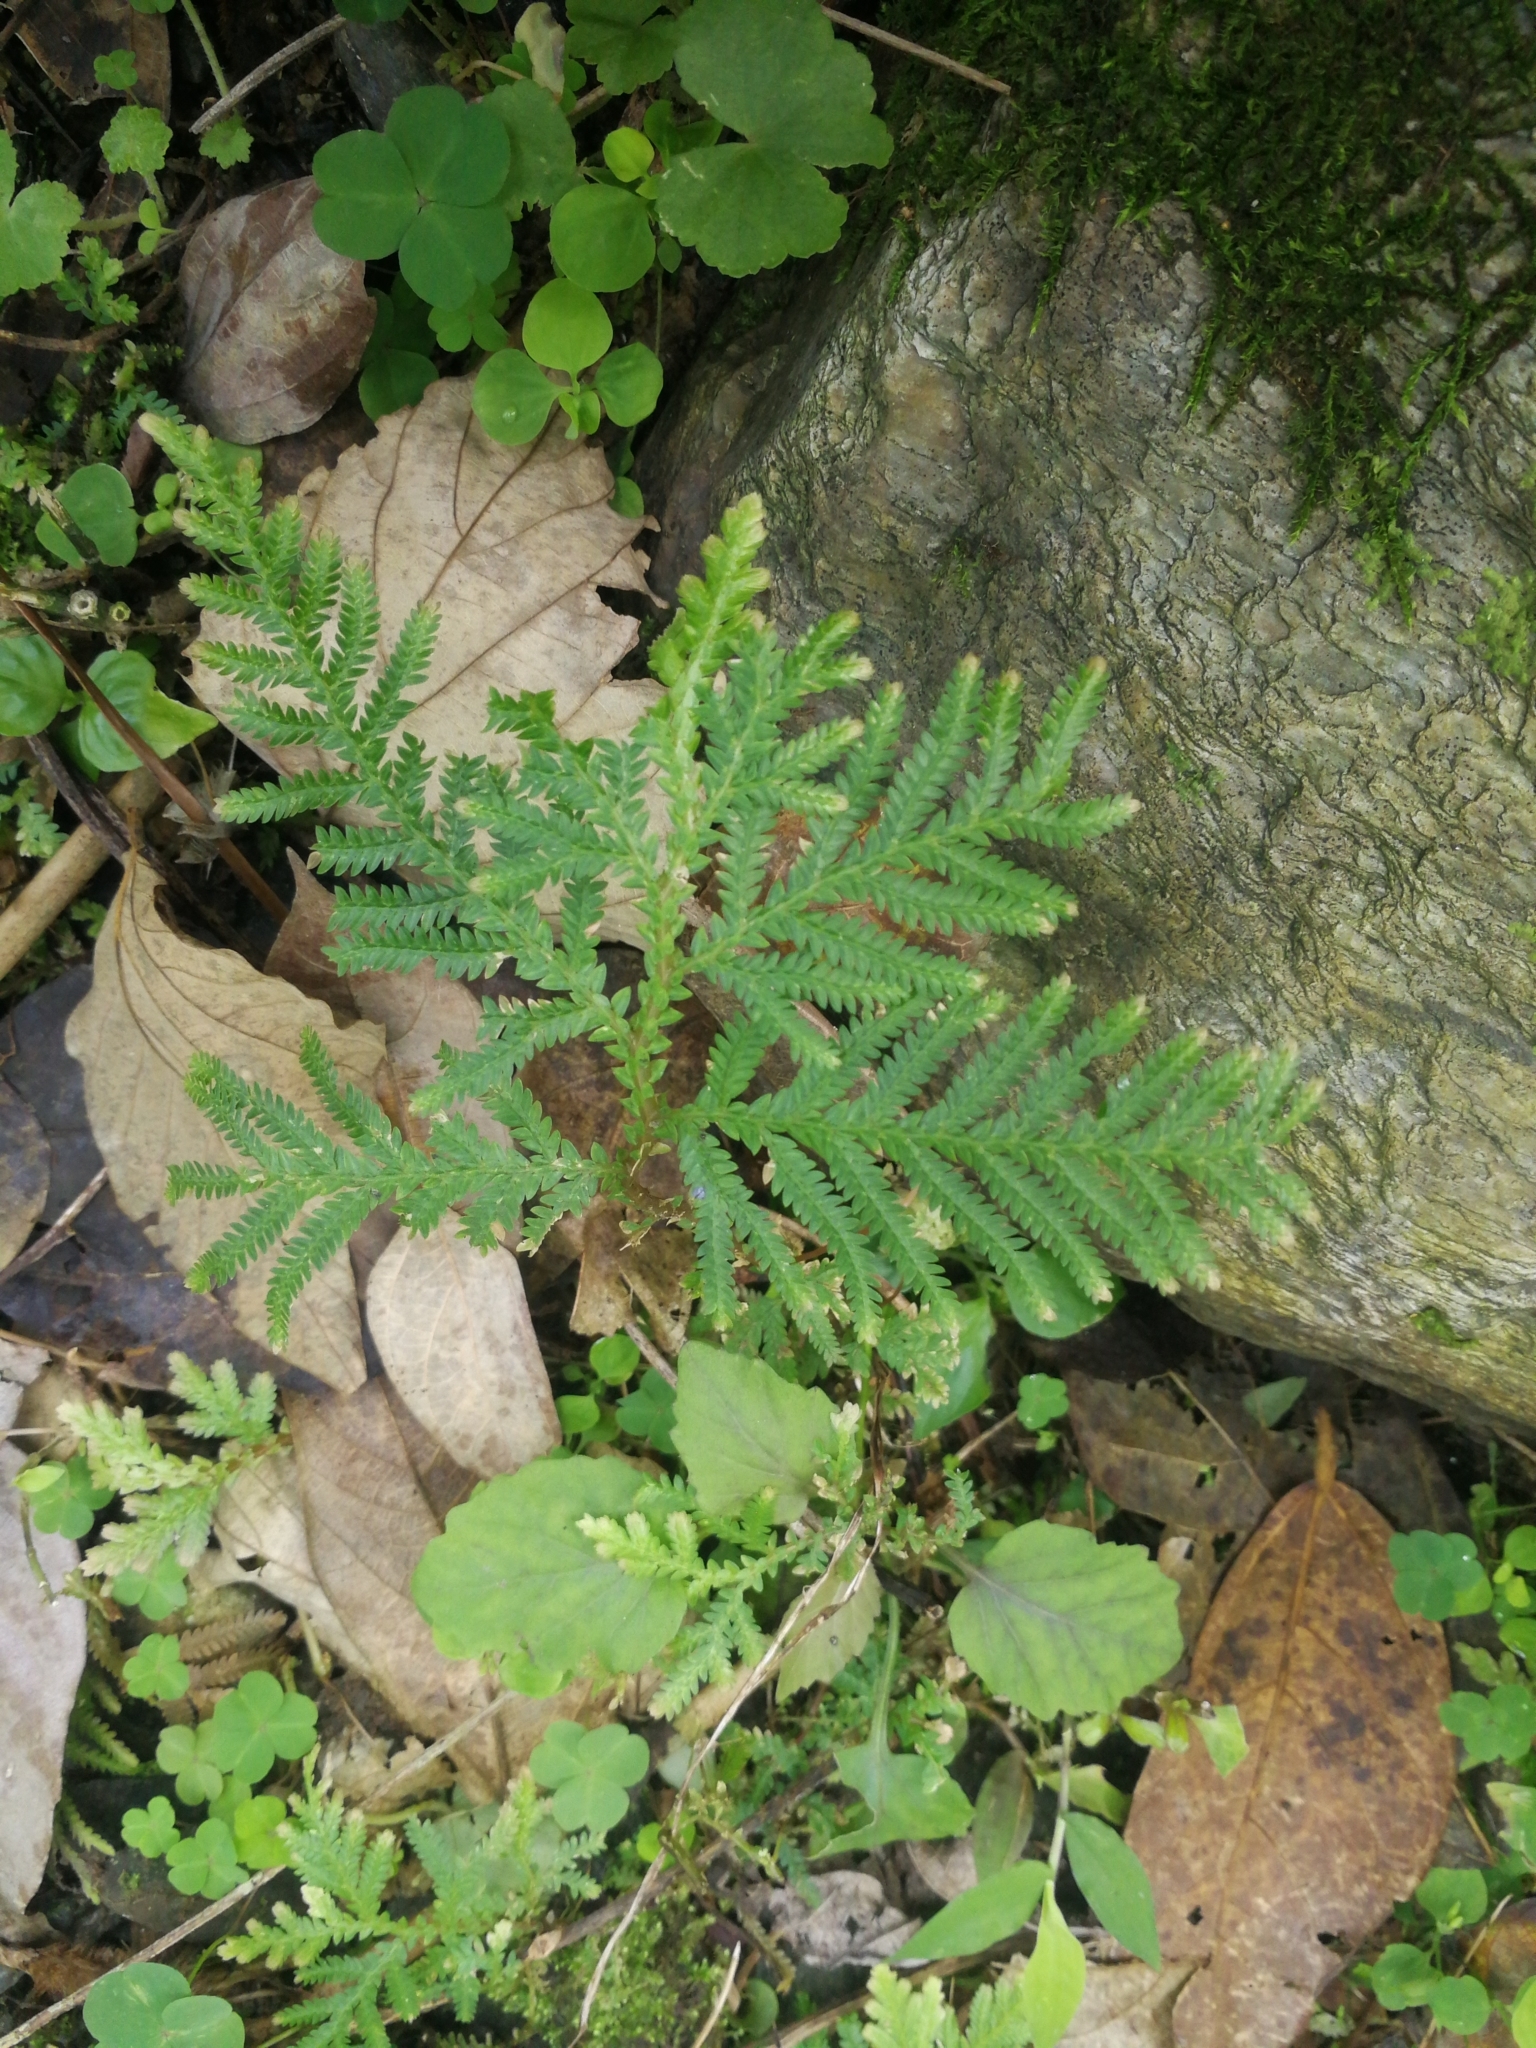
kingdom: Plantae
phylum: Tracheophyta
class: Lycopodiopsida
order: Selaginellales
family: Selaginellaceae
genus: Selaginella
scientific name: Selaginella delicatula
